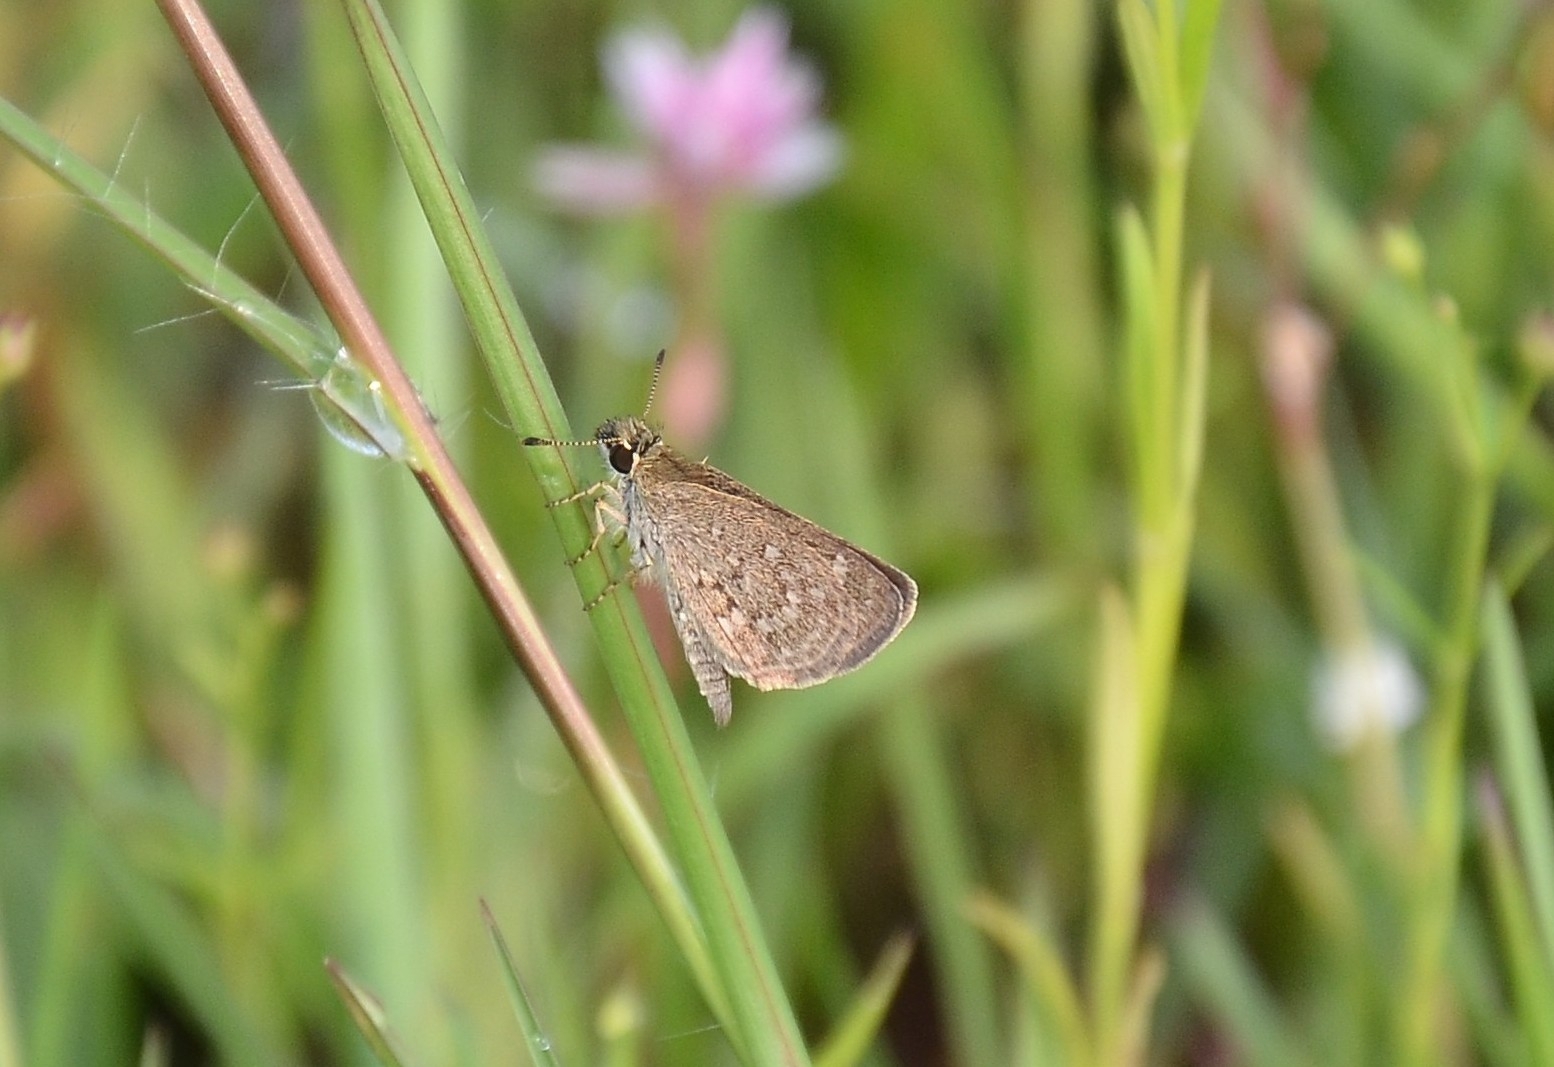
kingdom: Animalia
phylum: Arthropoda
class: Insecta
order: Lepidoptera
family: Hesperiidae
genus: Aeromachus
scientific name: Aeromachus pygmaeus
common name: Pygmy scrub hopper
